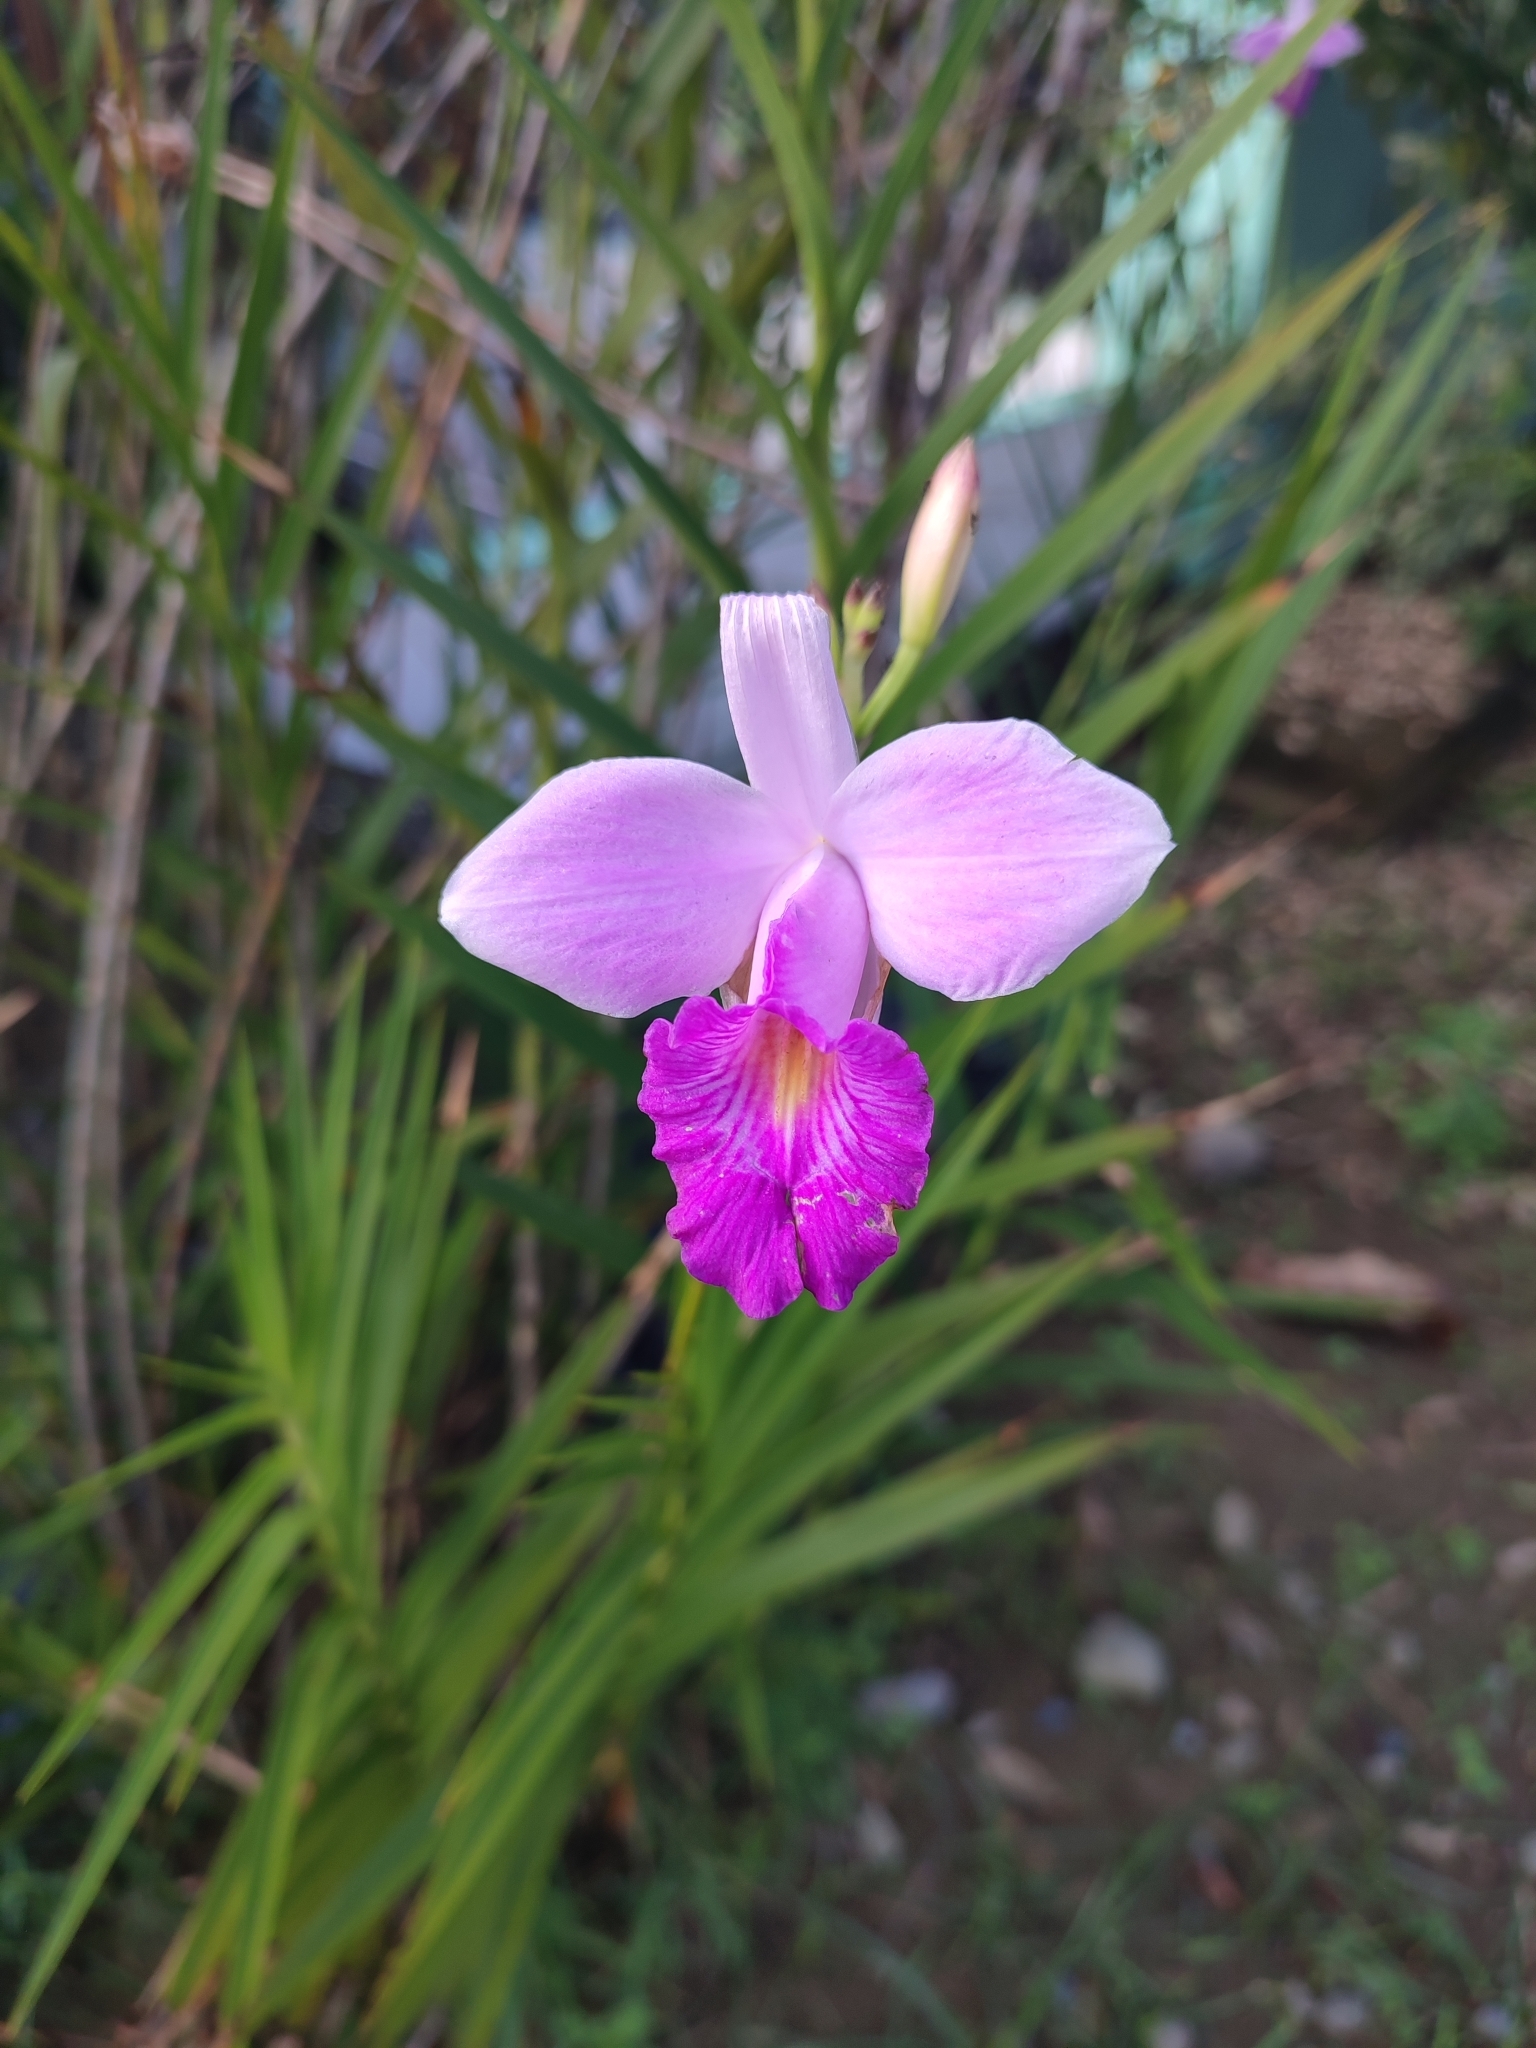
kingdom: Plantae
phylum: Tracheophyta
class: Liliopsida
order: Asparagales
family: Orchidaceae
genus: Arundina
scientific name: Arundina graminifolia
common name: Bamboo orchid
